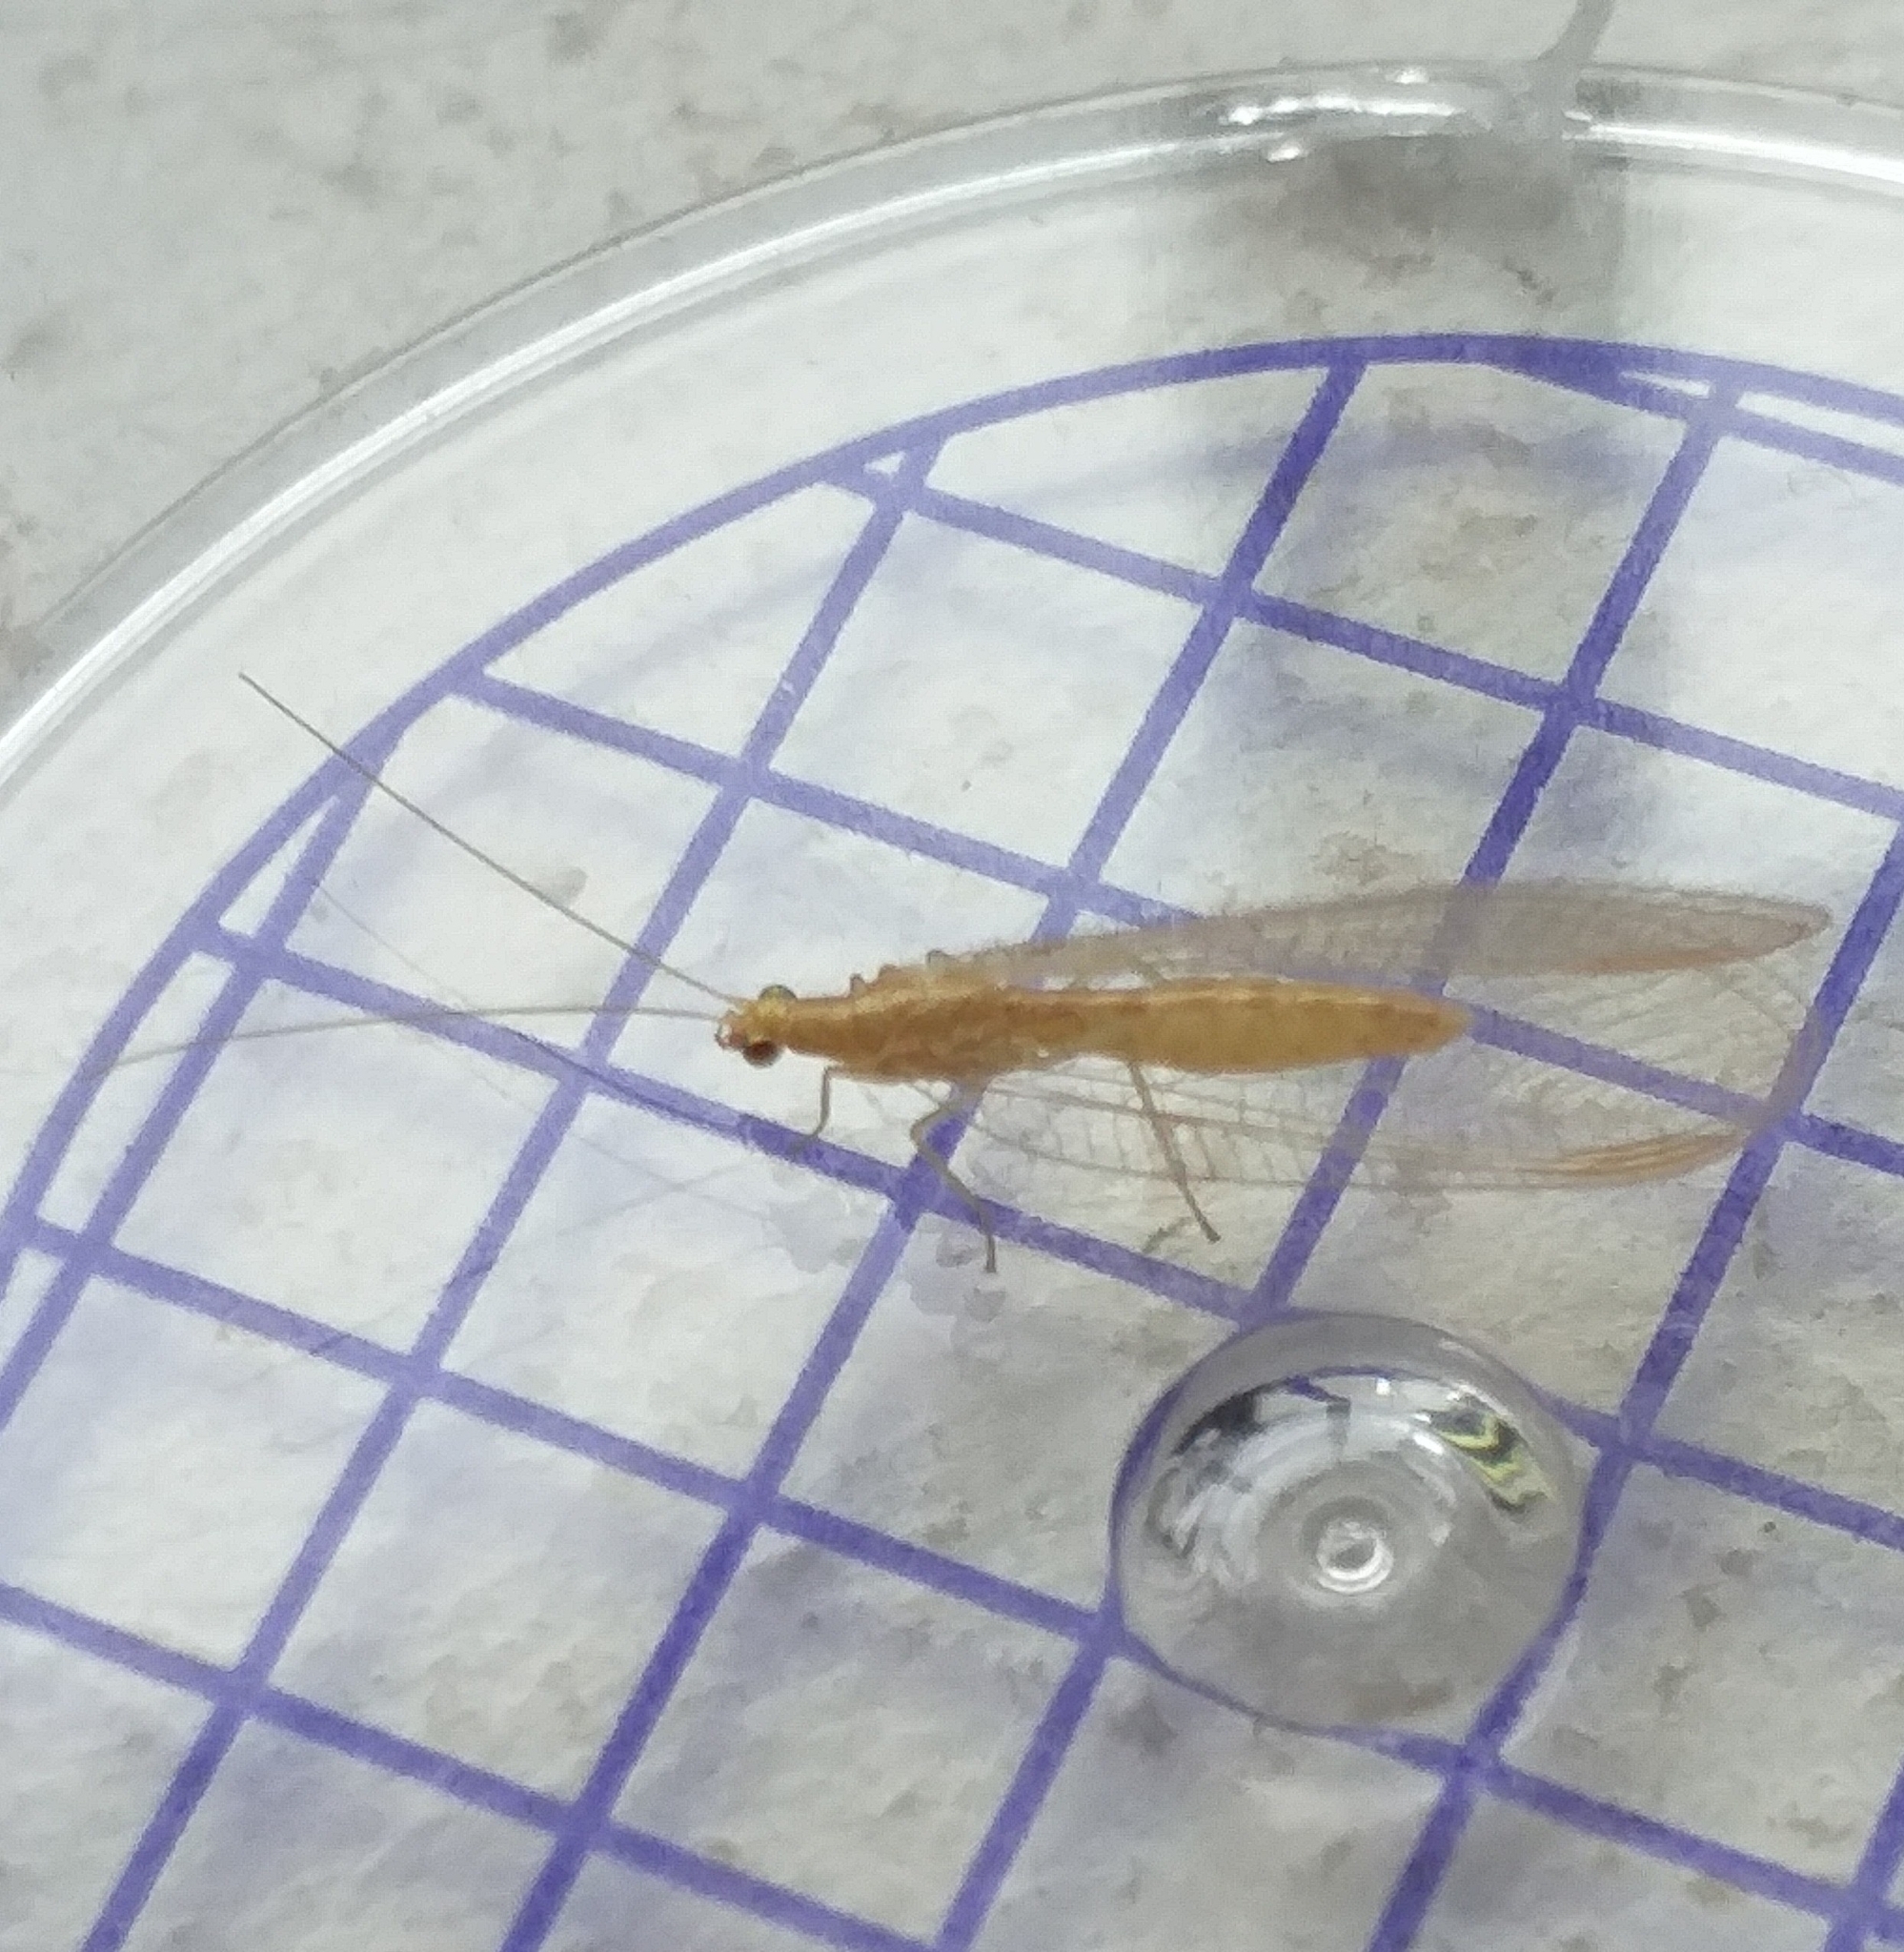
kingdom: Animalia
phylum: Arthropoda
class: Insecta
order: Neuroptera
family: Chrysopidae
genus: Chrysoperla
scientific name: Chrysoperla
